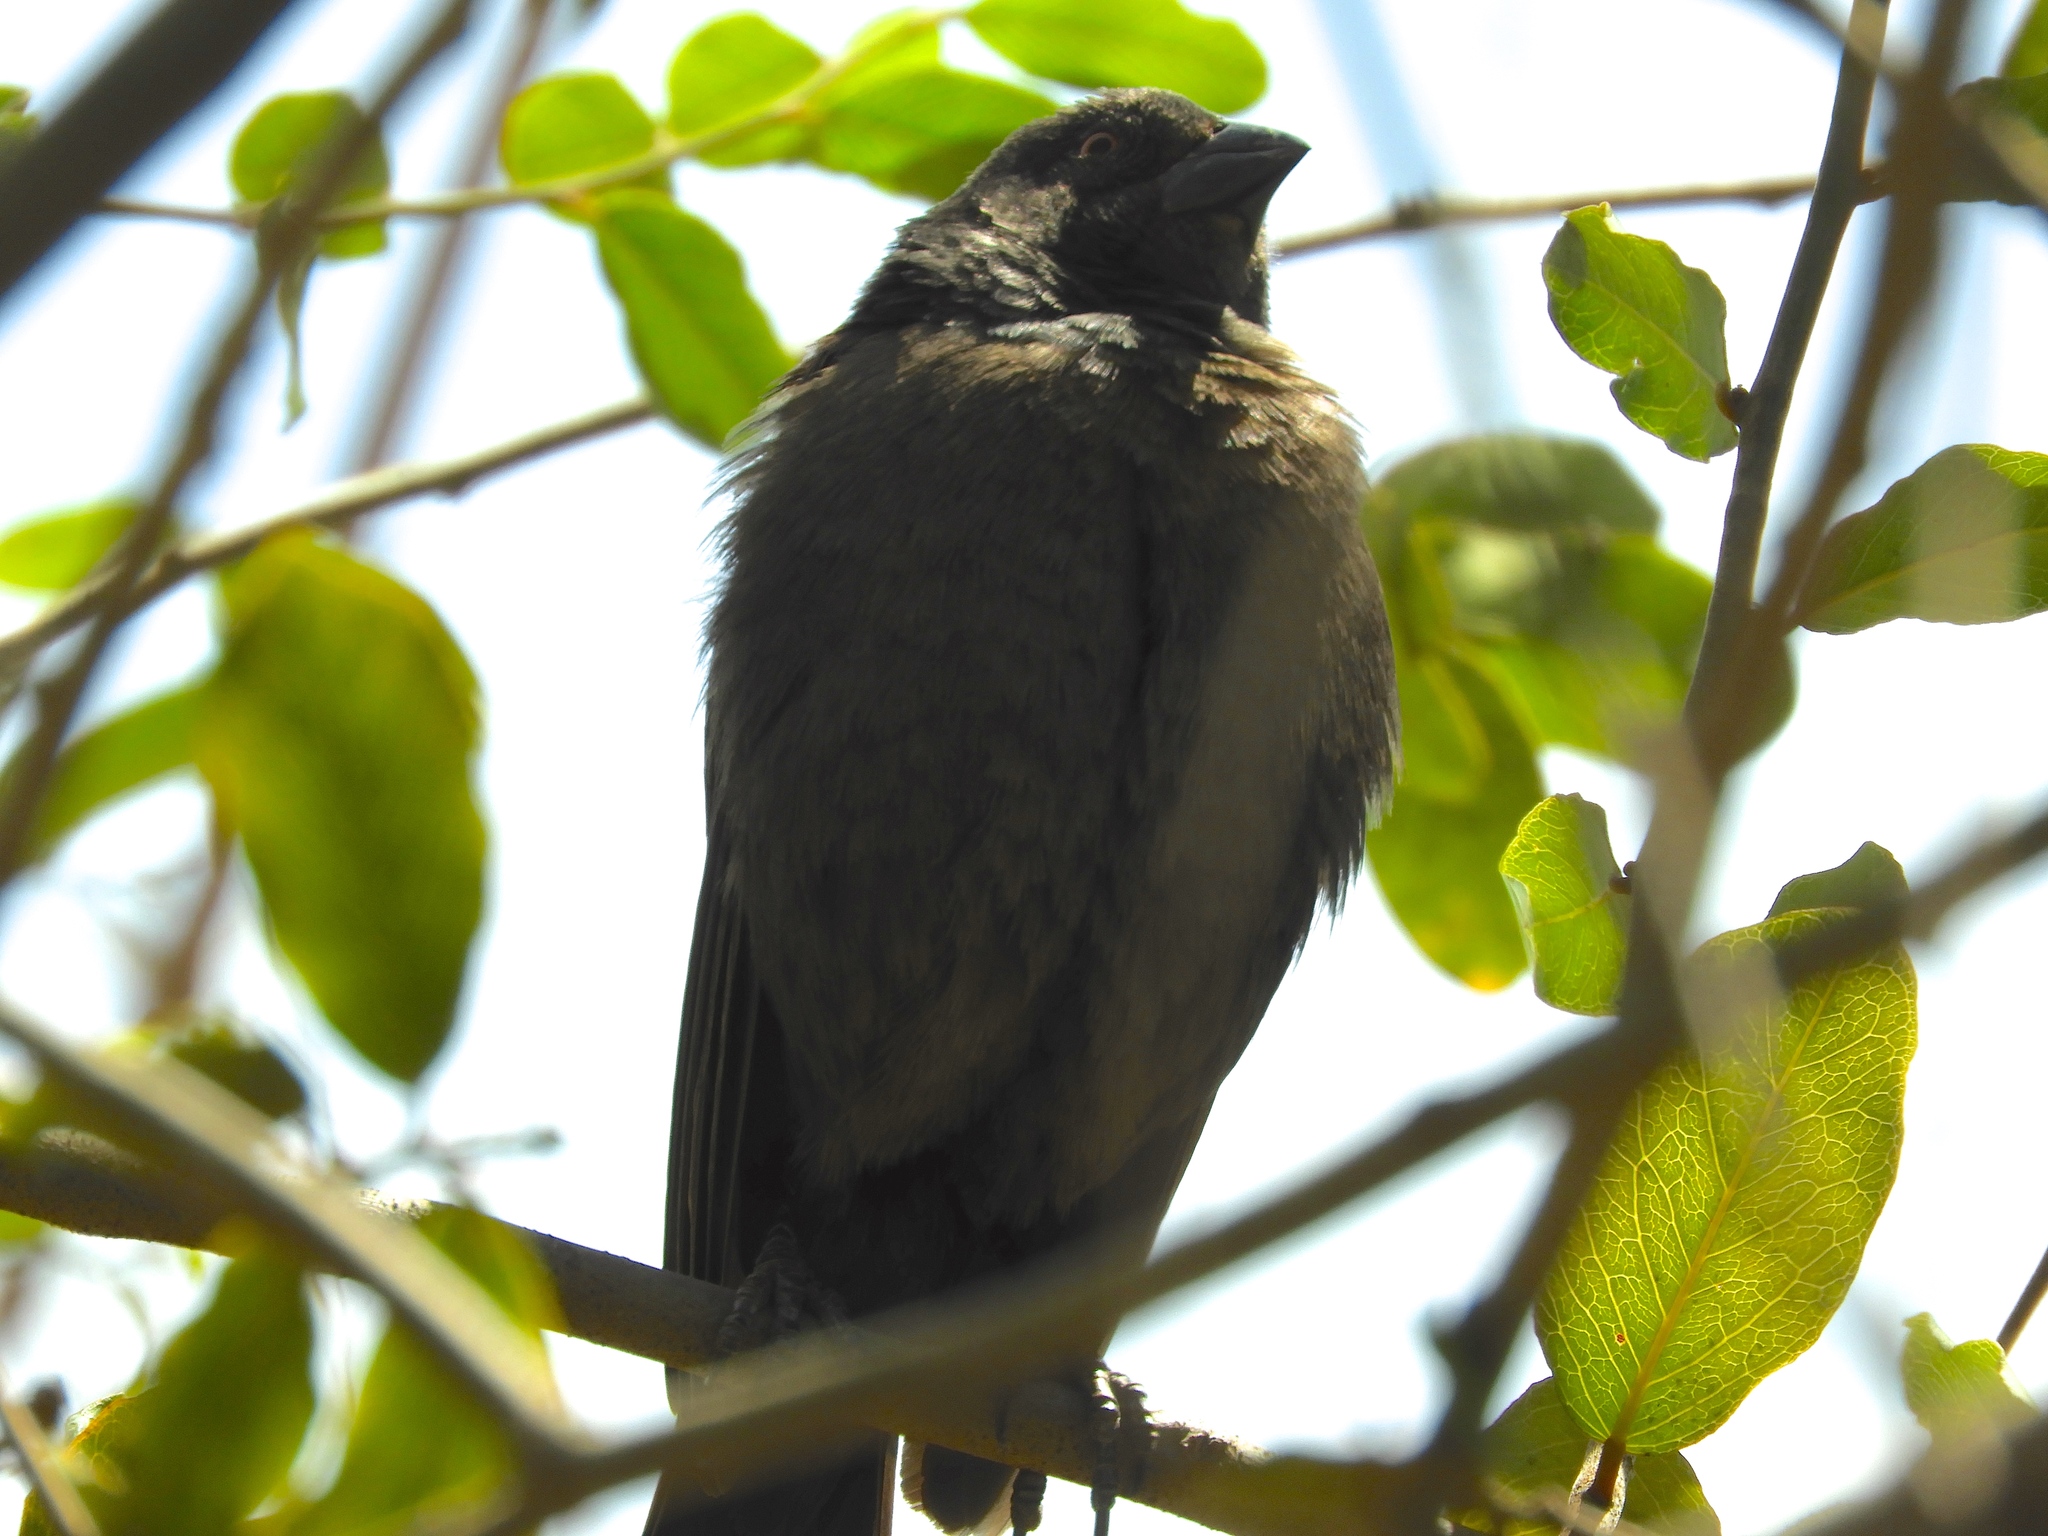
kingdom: Animalia
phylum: Chordata
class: Aves
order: Passeriformes
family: Icteridae
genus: Molothrus
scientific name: Molothrus aeneus
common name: Bronzed cowbird
